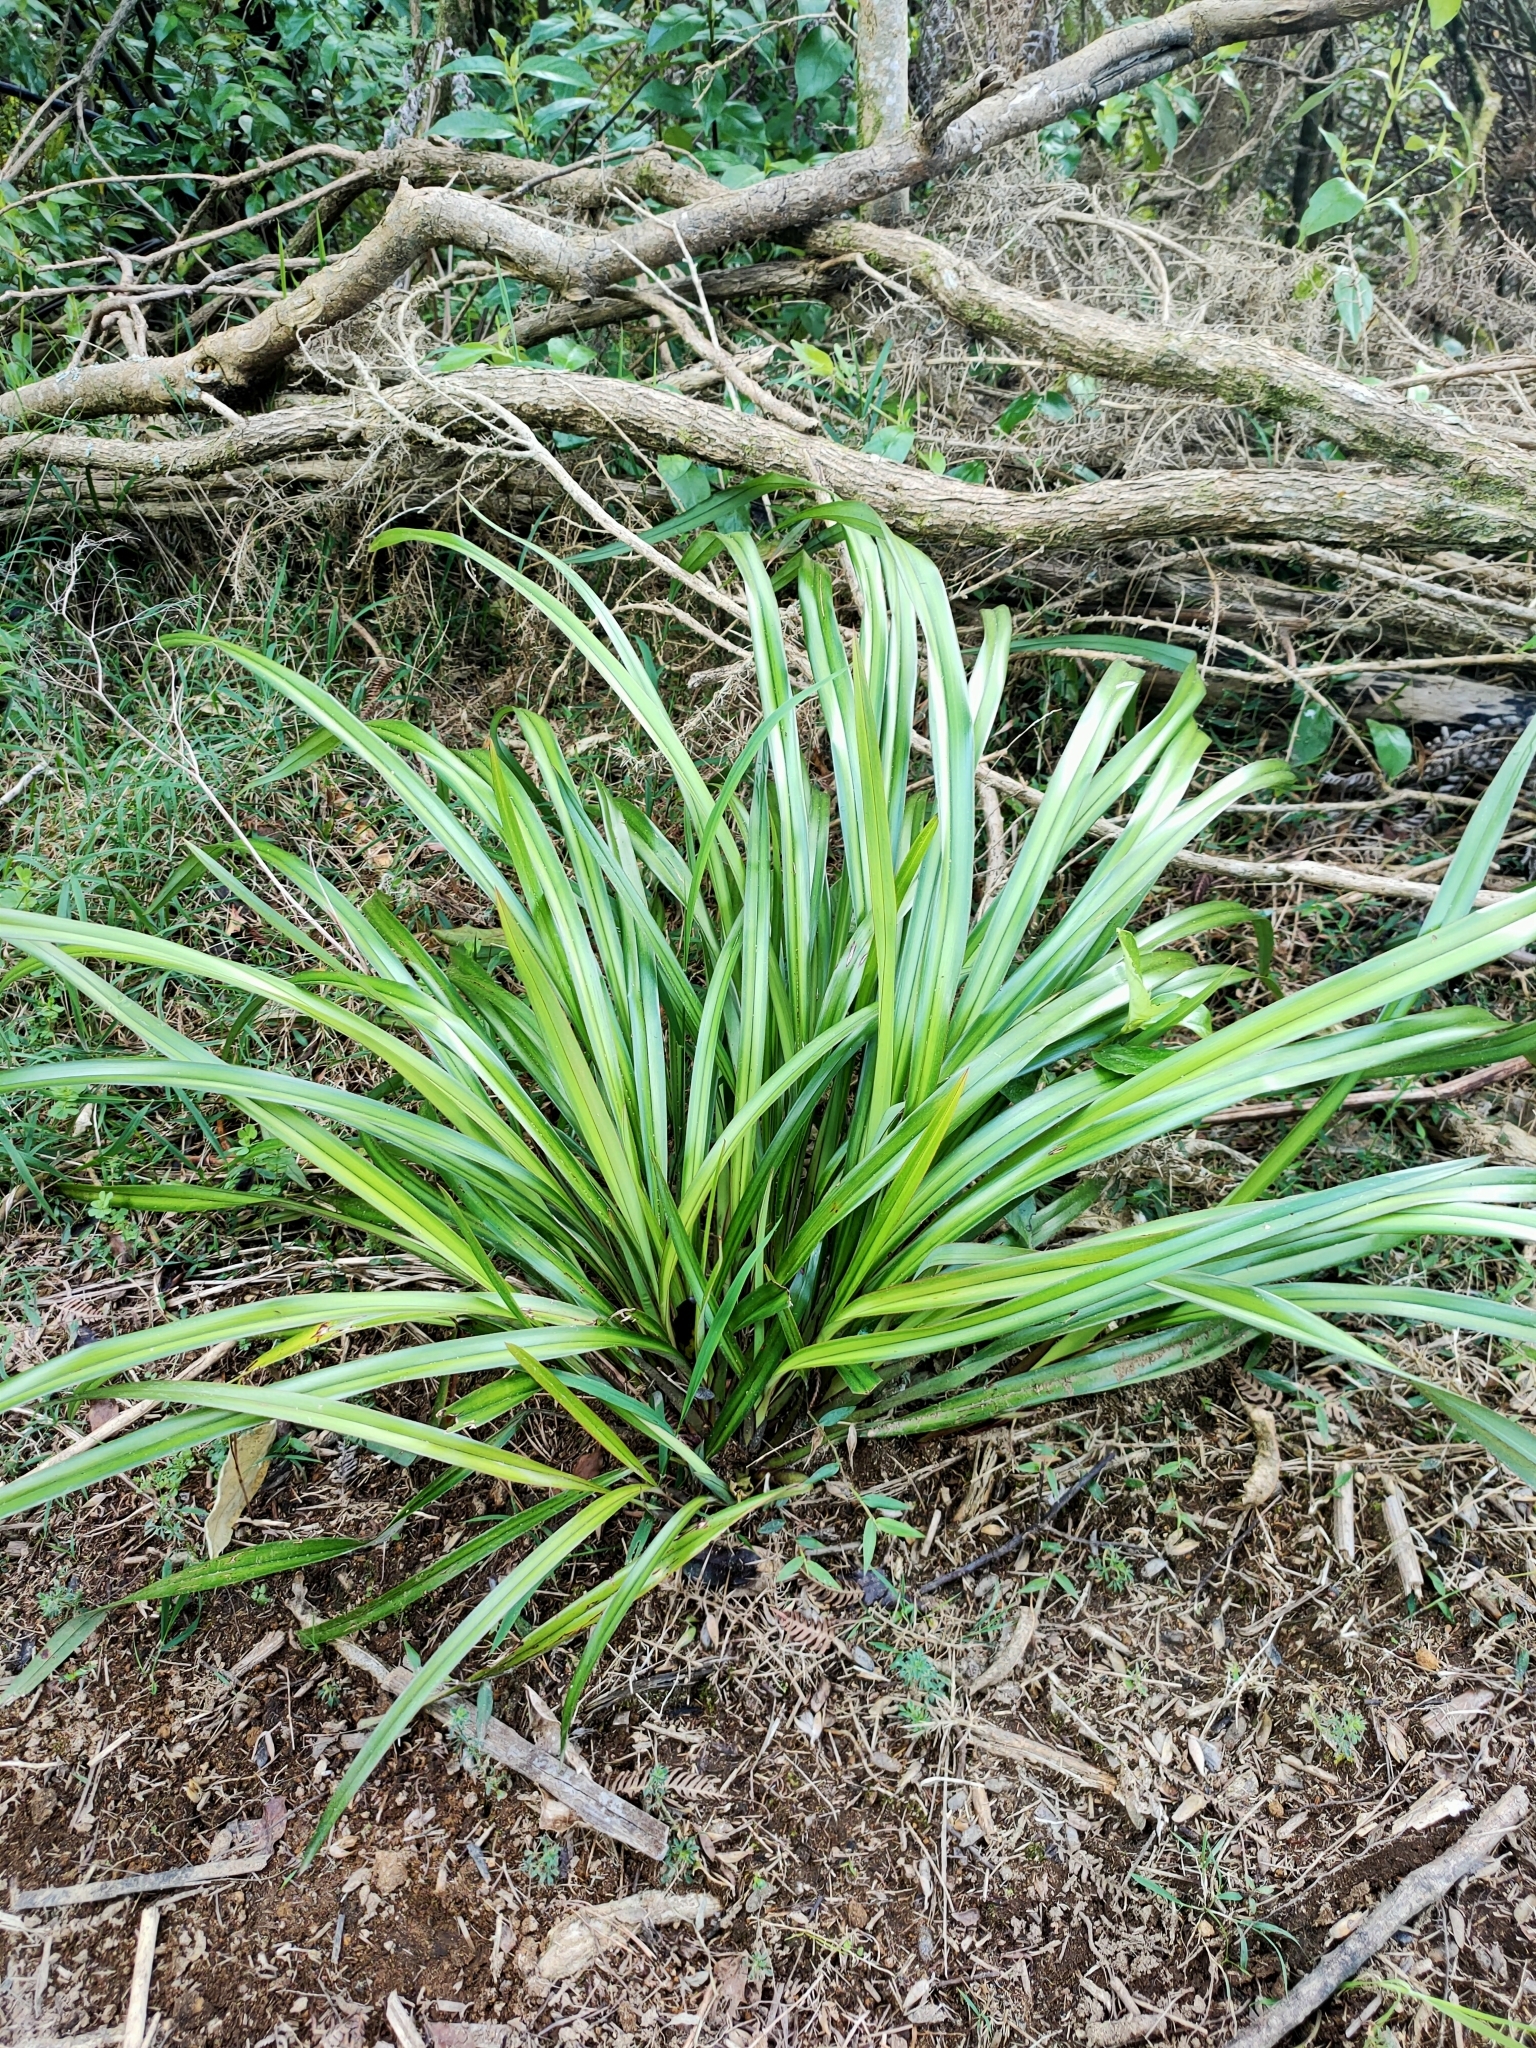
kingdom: Plantae
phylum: Tracheophyta
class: Liliopsida
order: Asparagales
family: Asphodelaceae
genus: Dianella
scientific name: Dianella nigra
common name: New zealand-blueberry
